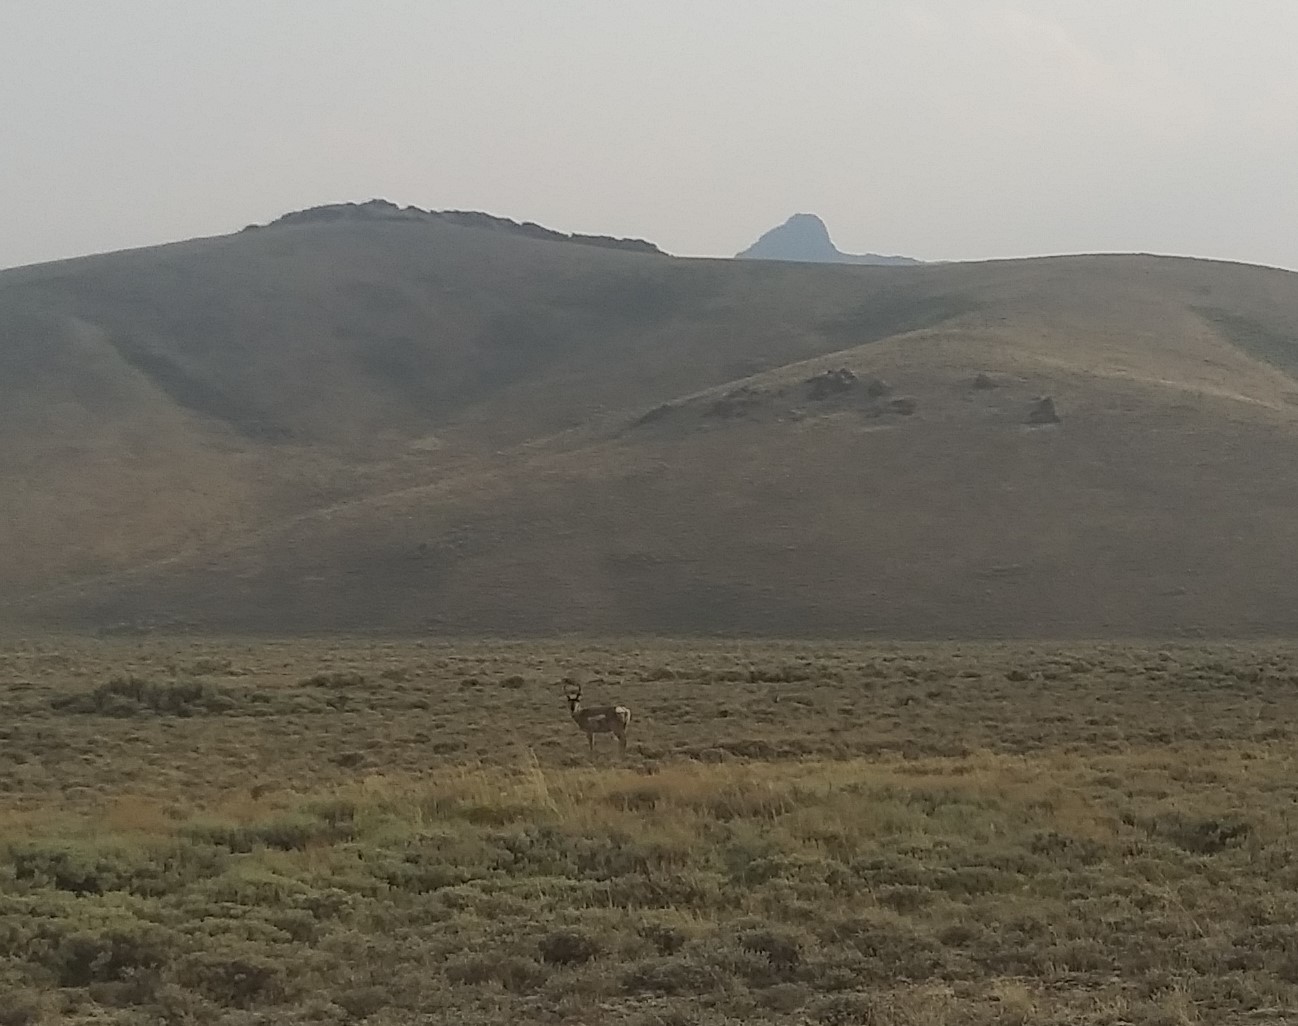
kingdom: Animalia
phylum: Chordata
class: Mammalia
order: Artiodactyla
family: Antilocapridae
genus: Antilocapra
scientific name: Antilocapra americana
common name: Pronghorn
